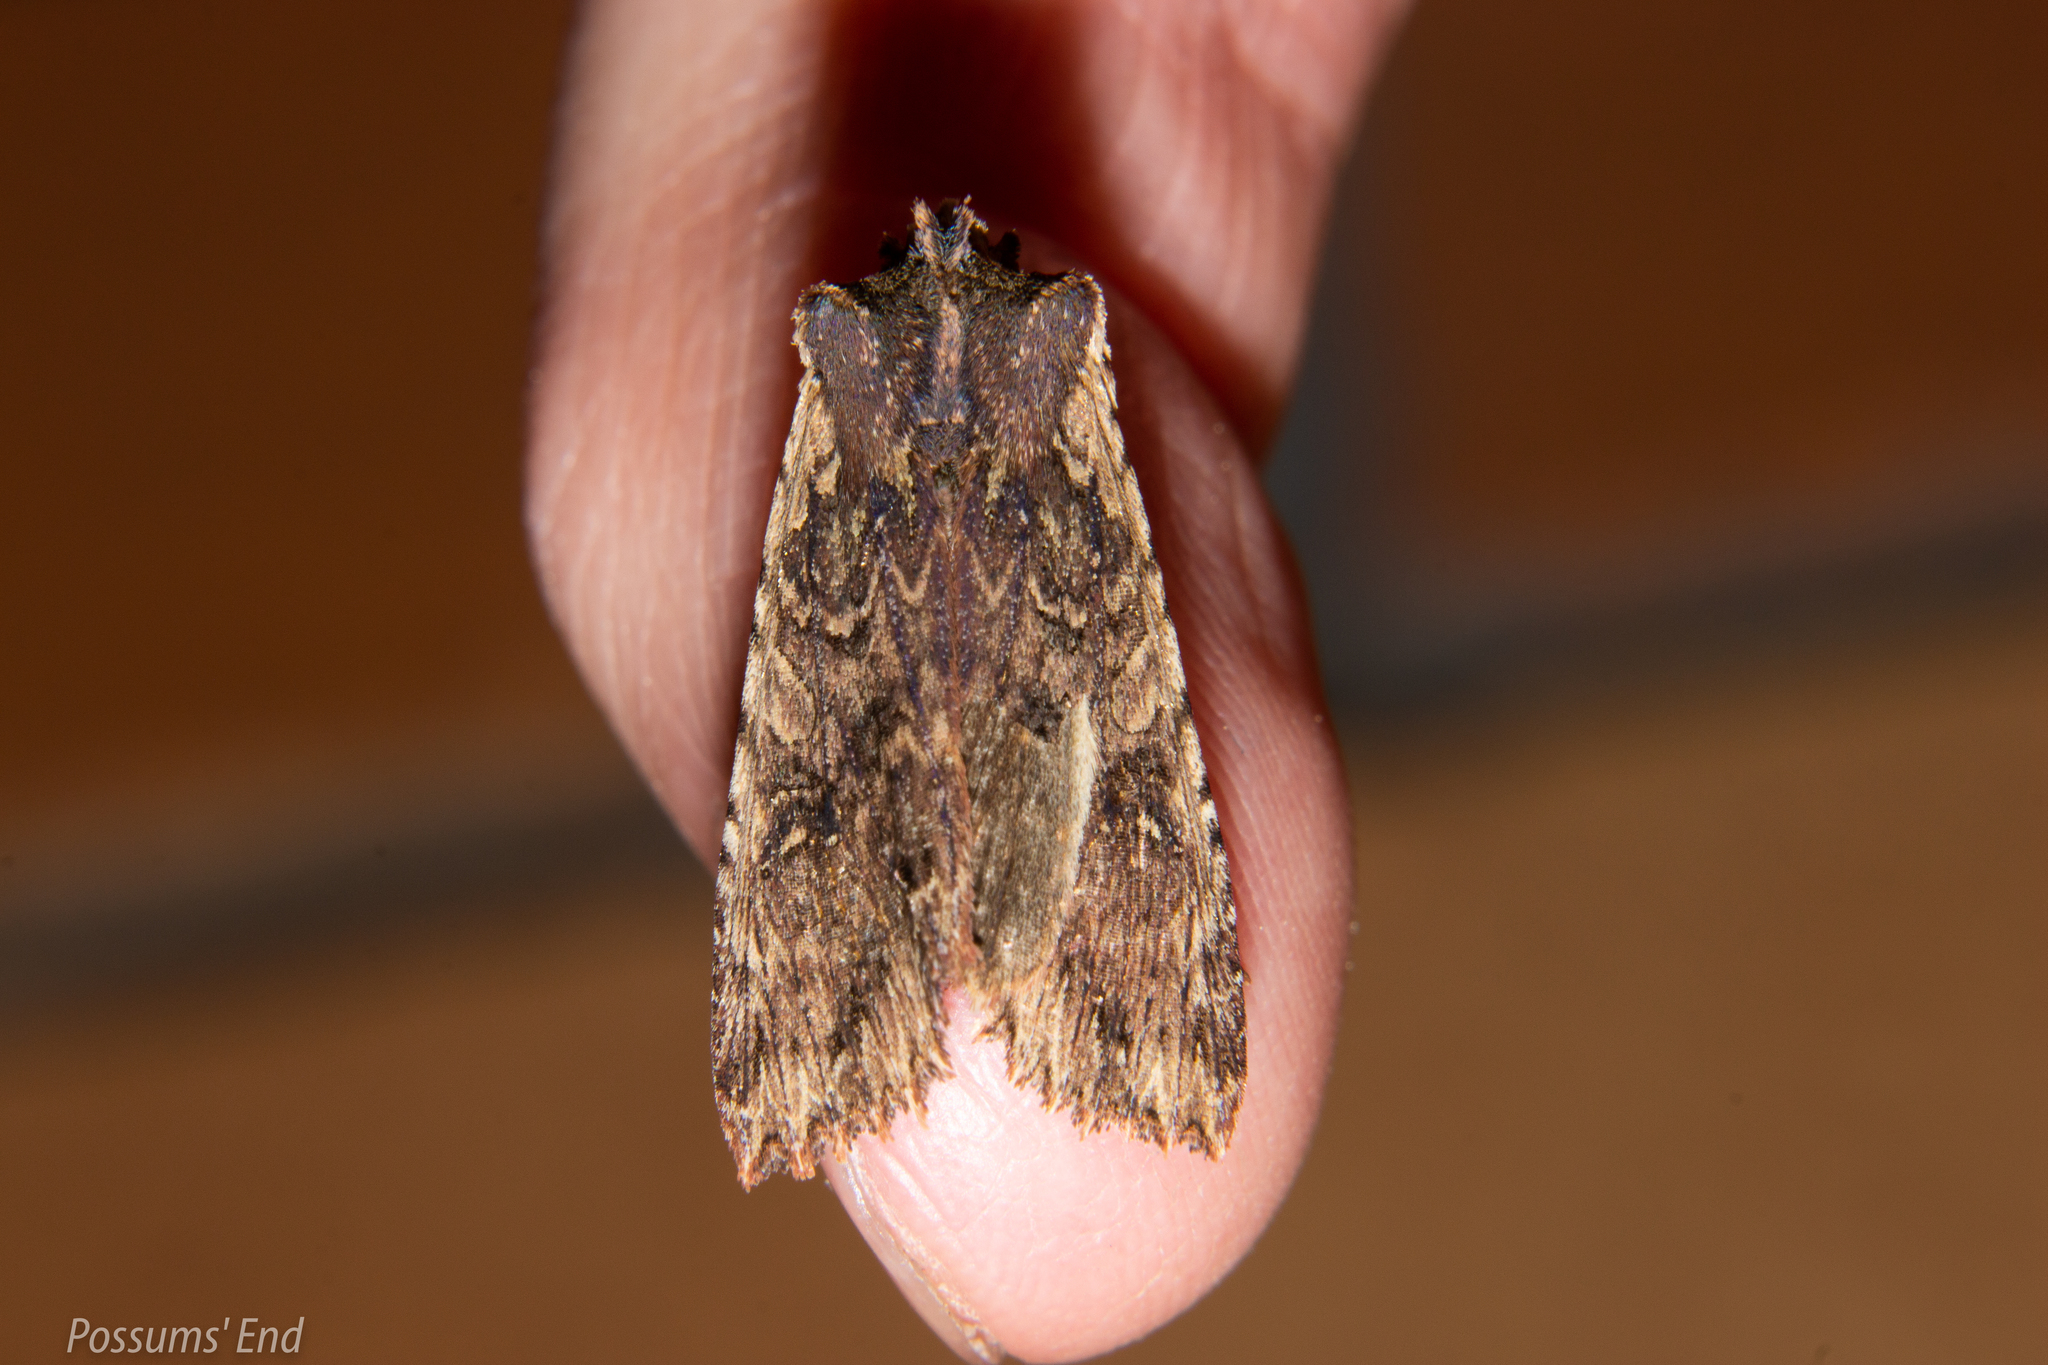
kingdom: Animalia
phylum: Arthropoda
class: Insecta
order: Lepidoptera
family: Noctuidae
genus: Meterana
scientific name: Meterana alcyone
